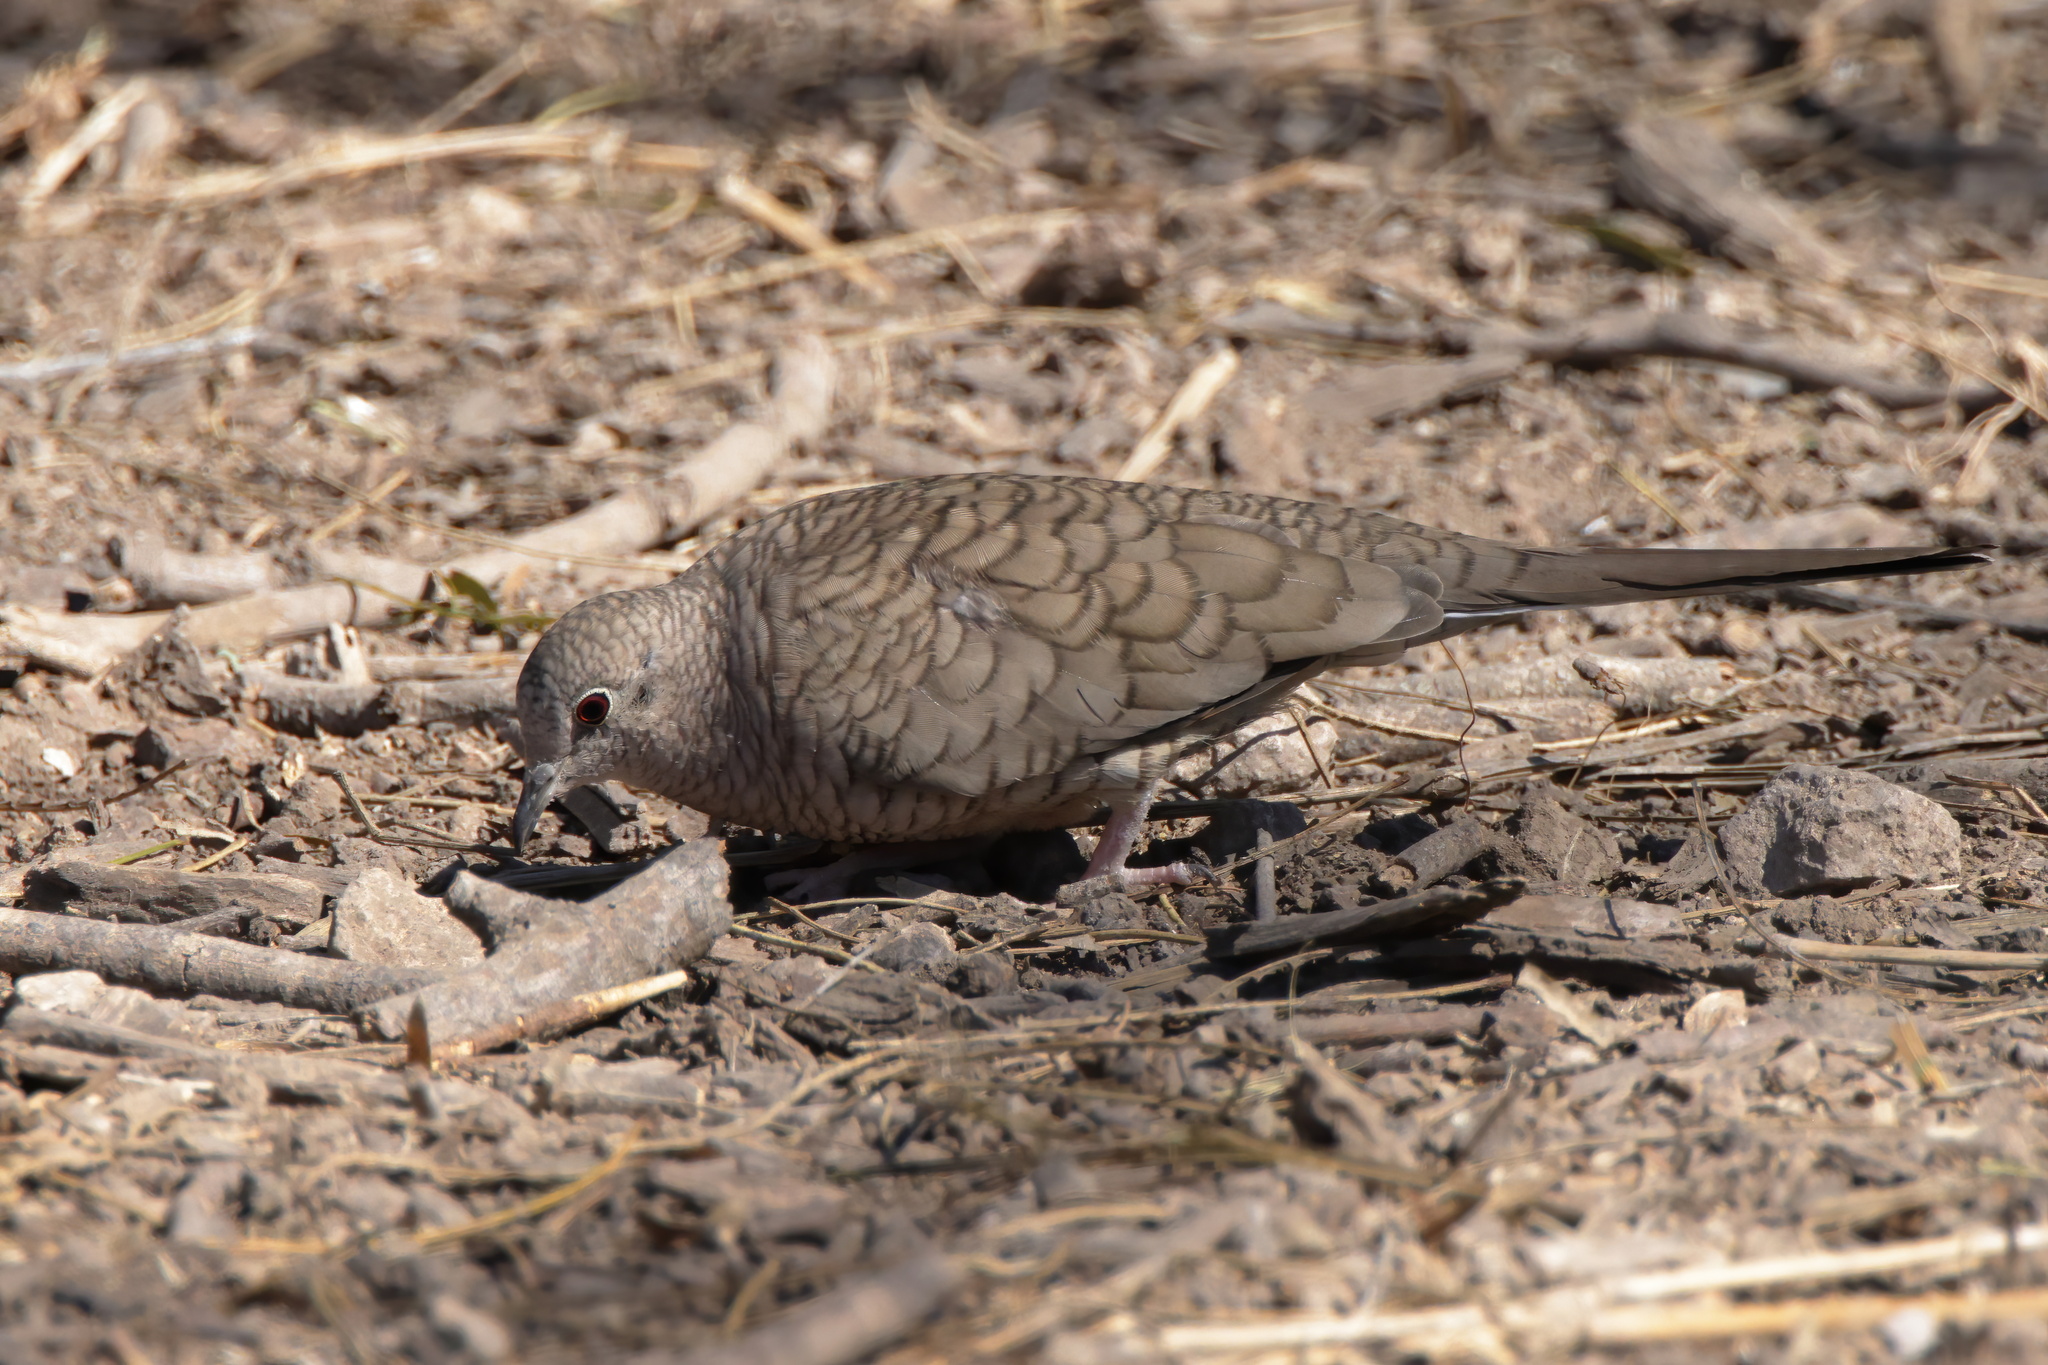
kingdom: Animalia
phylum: Chordata
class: Aves
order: Columbiformes
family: Columbidae
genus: Columbina
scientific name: Columbina inca
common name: Inca dove
